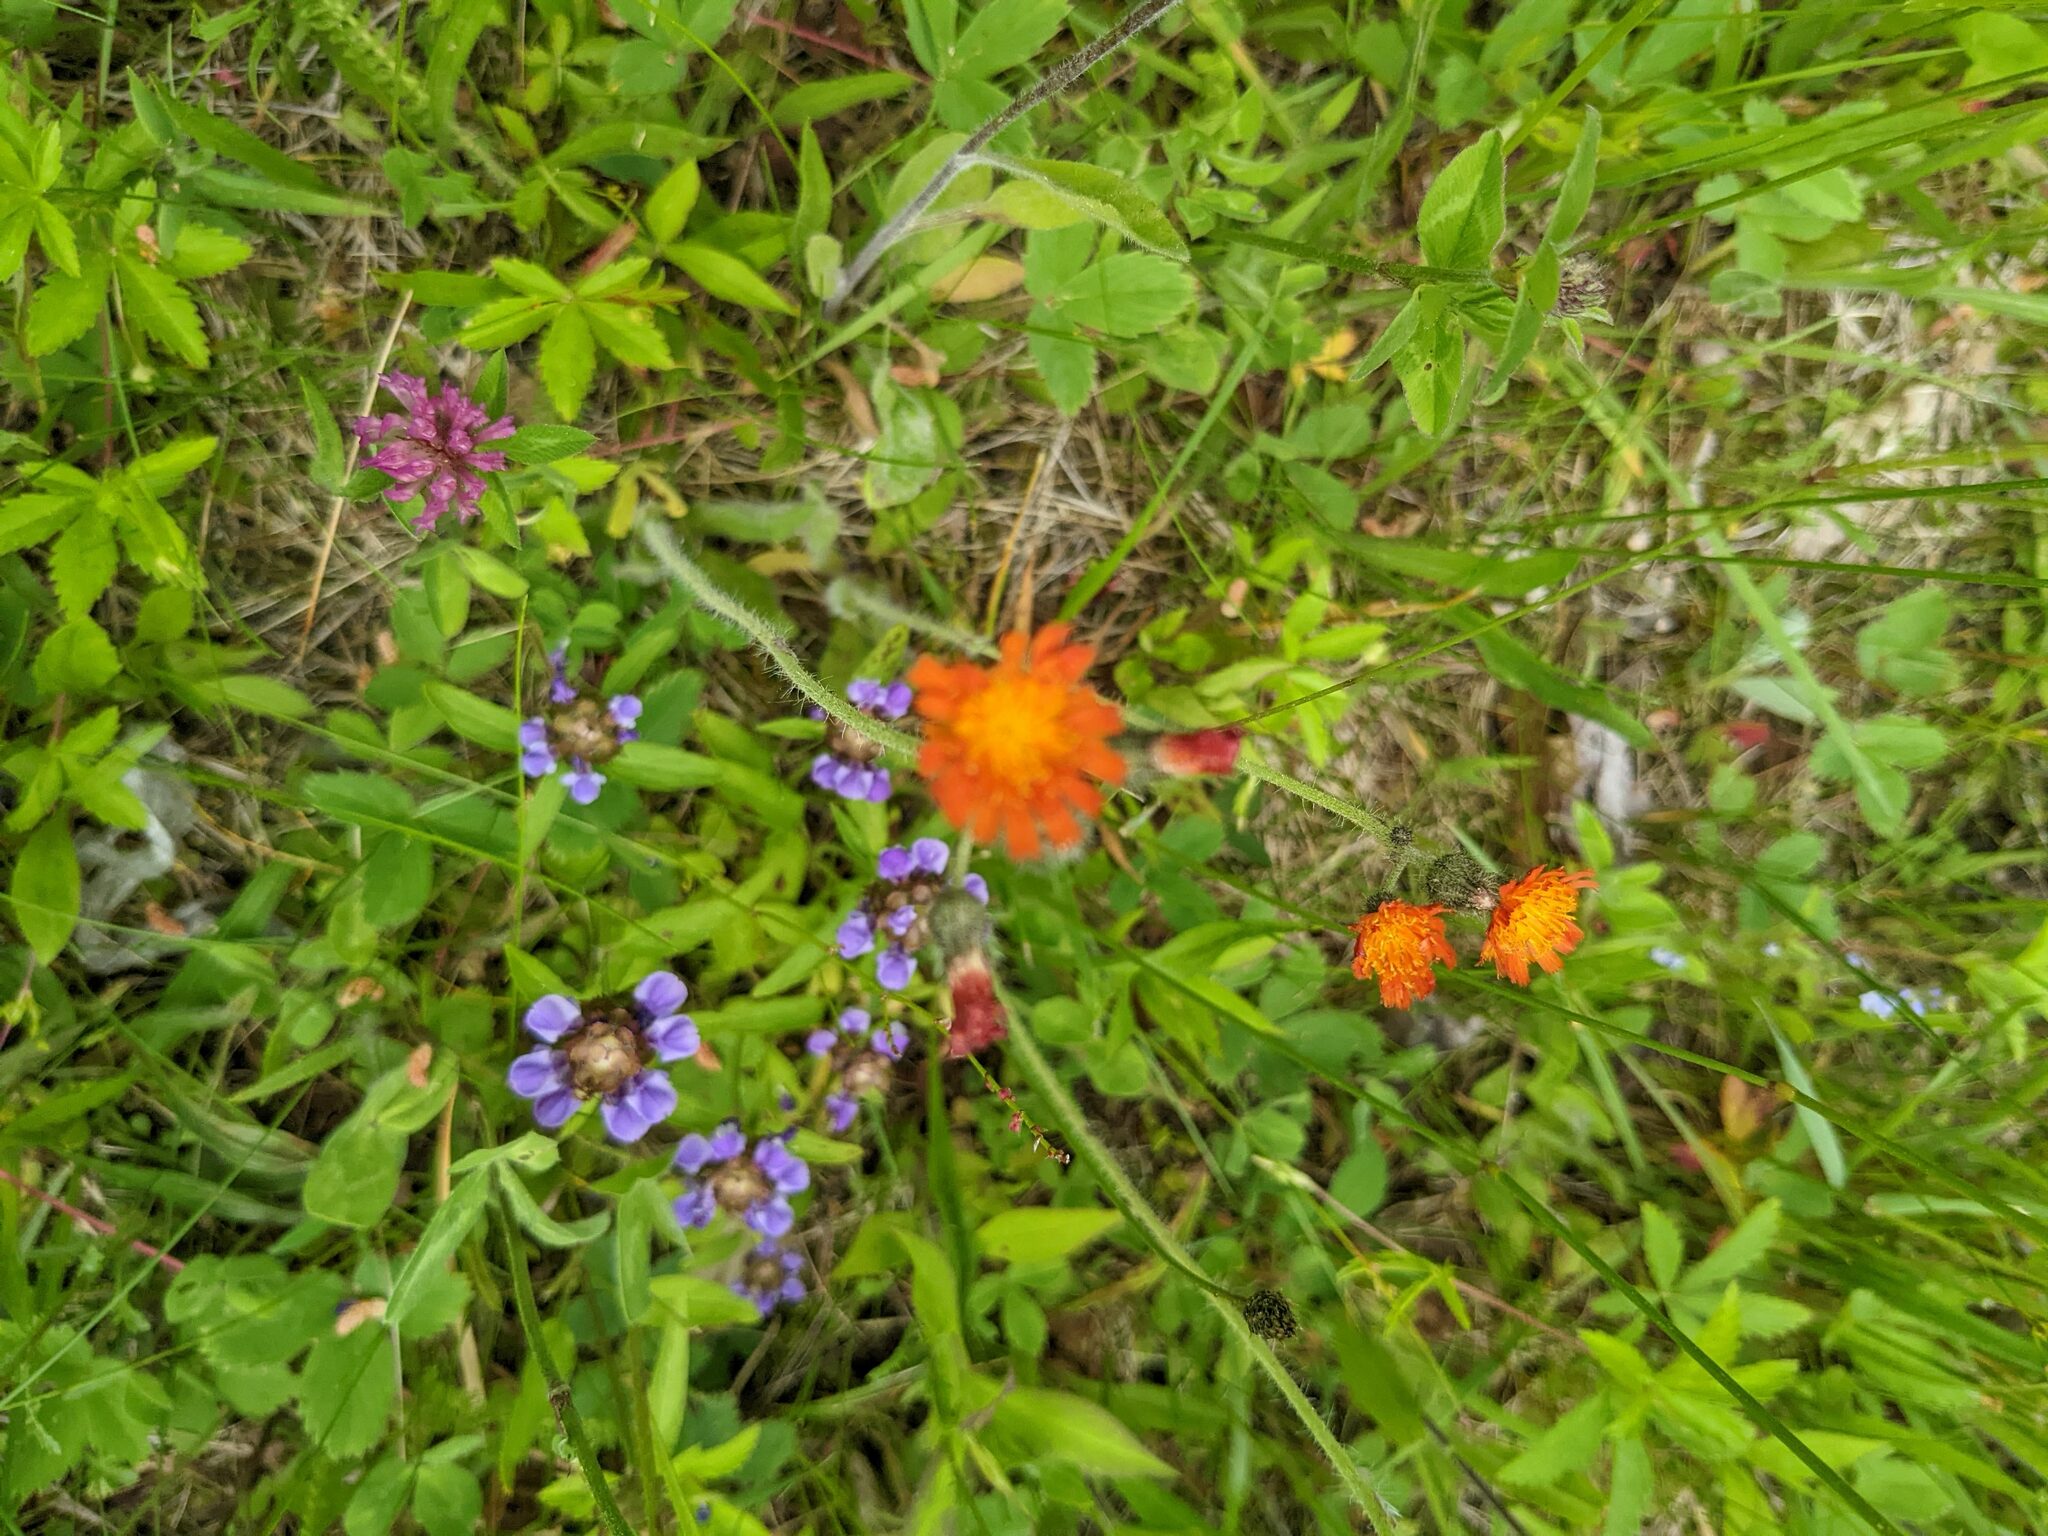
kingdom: Plantae
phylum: Tracheophyta
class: Magnoliopsida
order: Asterales
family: Asteraceae
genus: Pilosella
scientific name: Pilosella aurantiaca
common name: Fox-and-cubs
